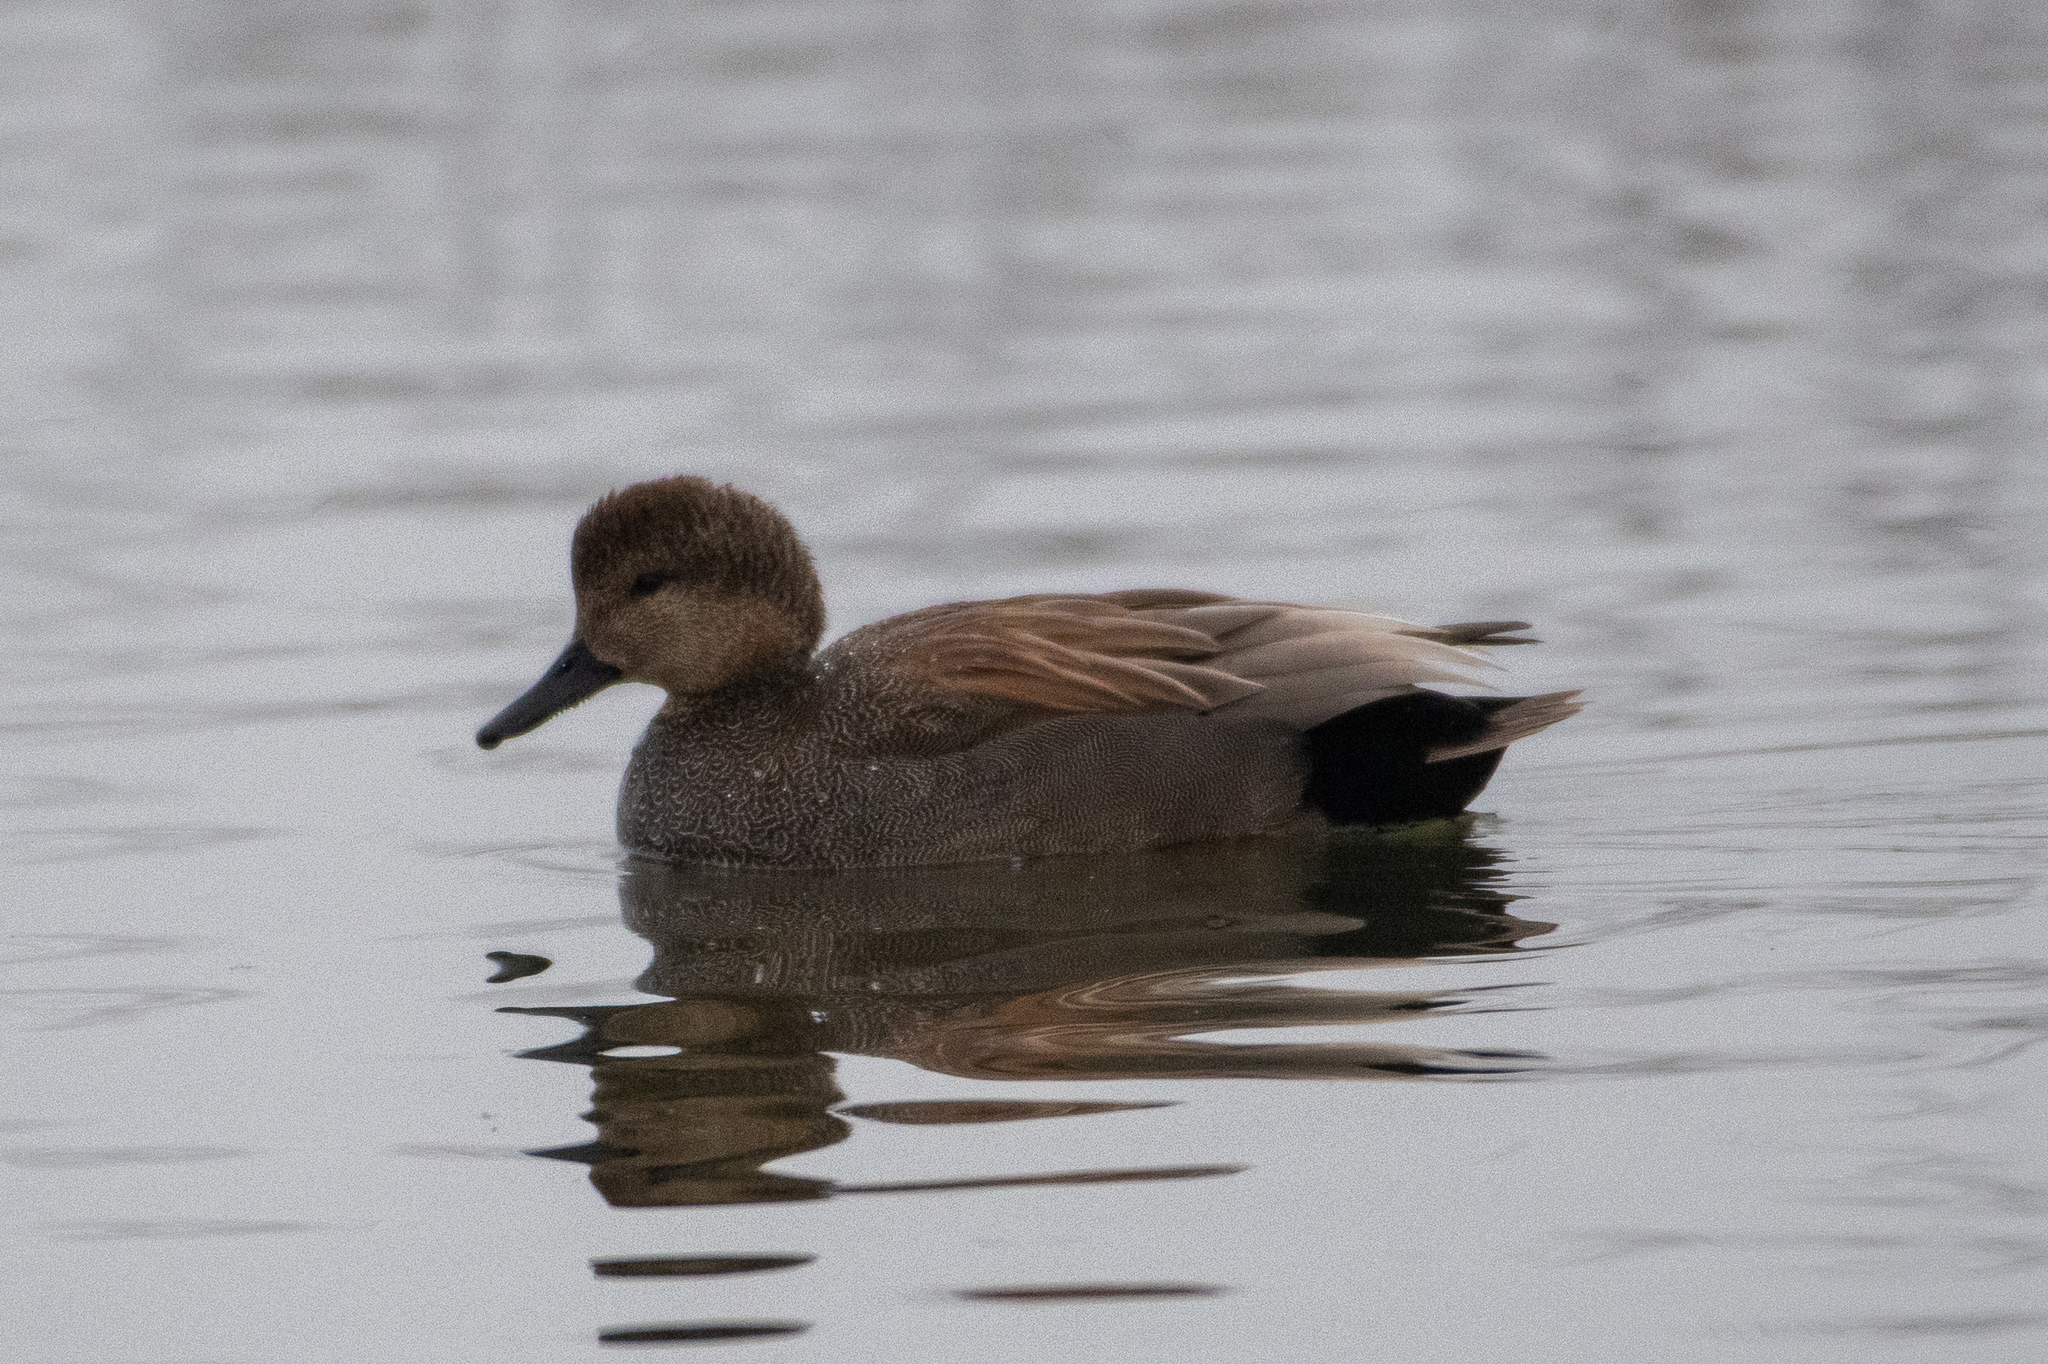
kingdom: Animalia
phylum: Chordata
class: Aves
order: Anseriformes
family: Anatidae
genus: Mareca
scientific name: Mareca strepera
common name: Gadwall
